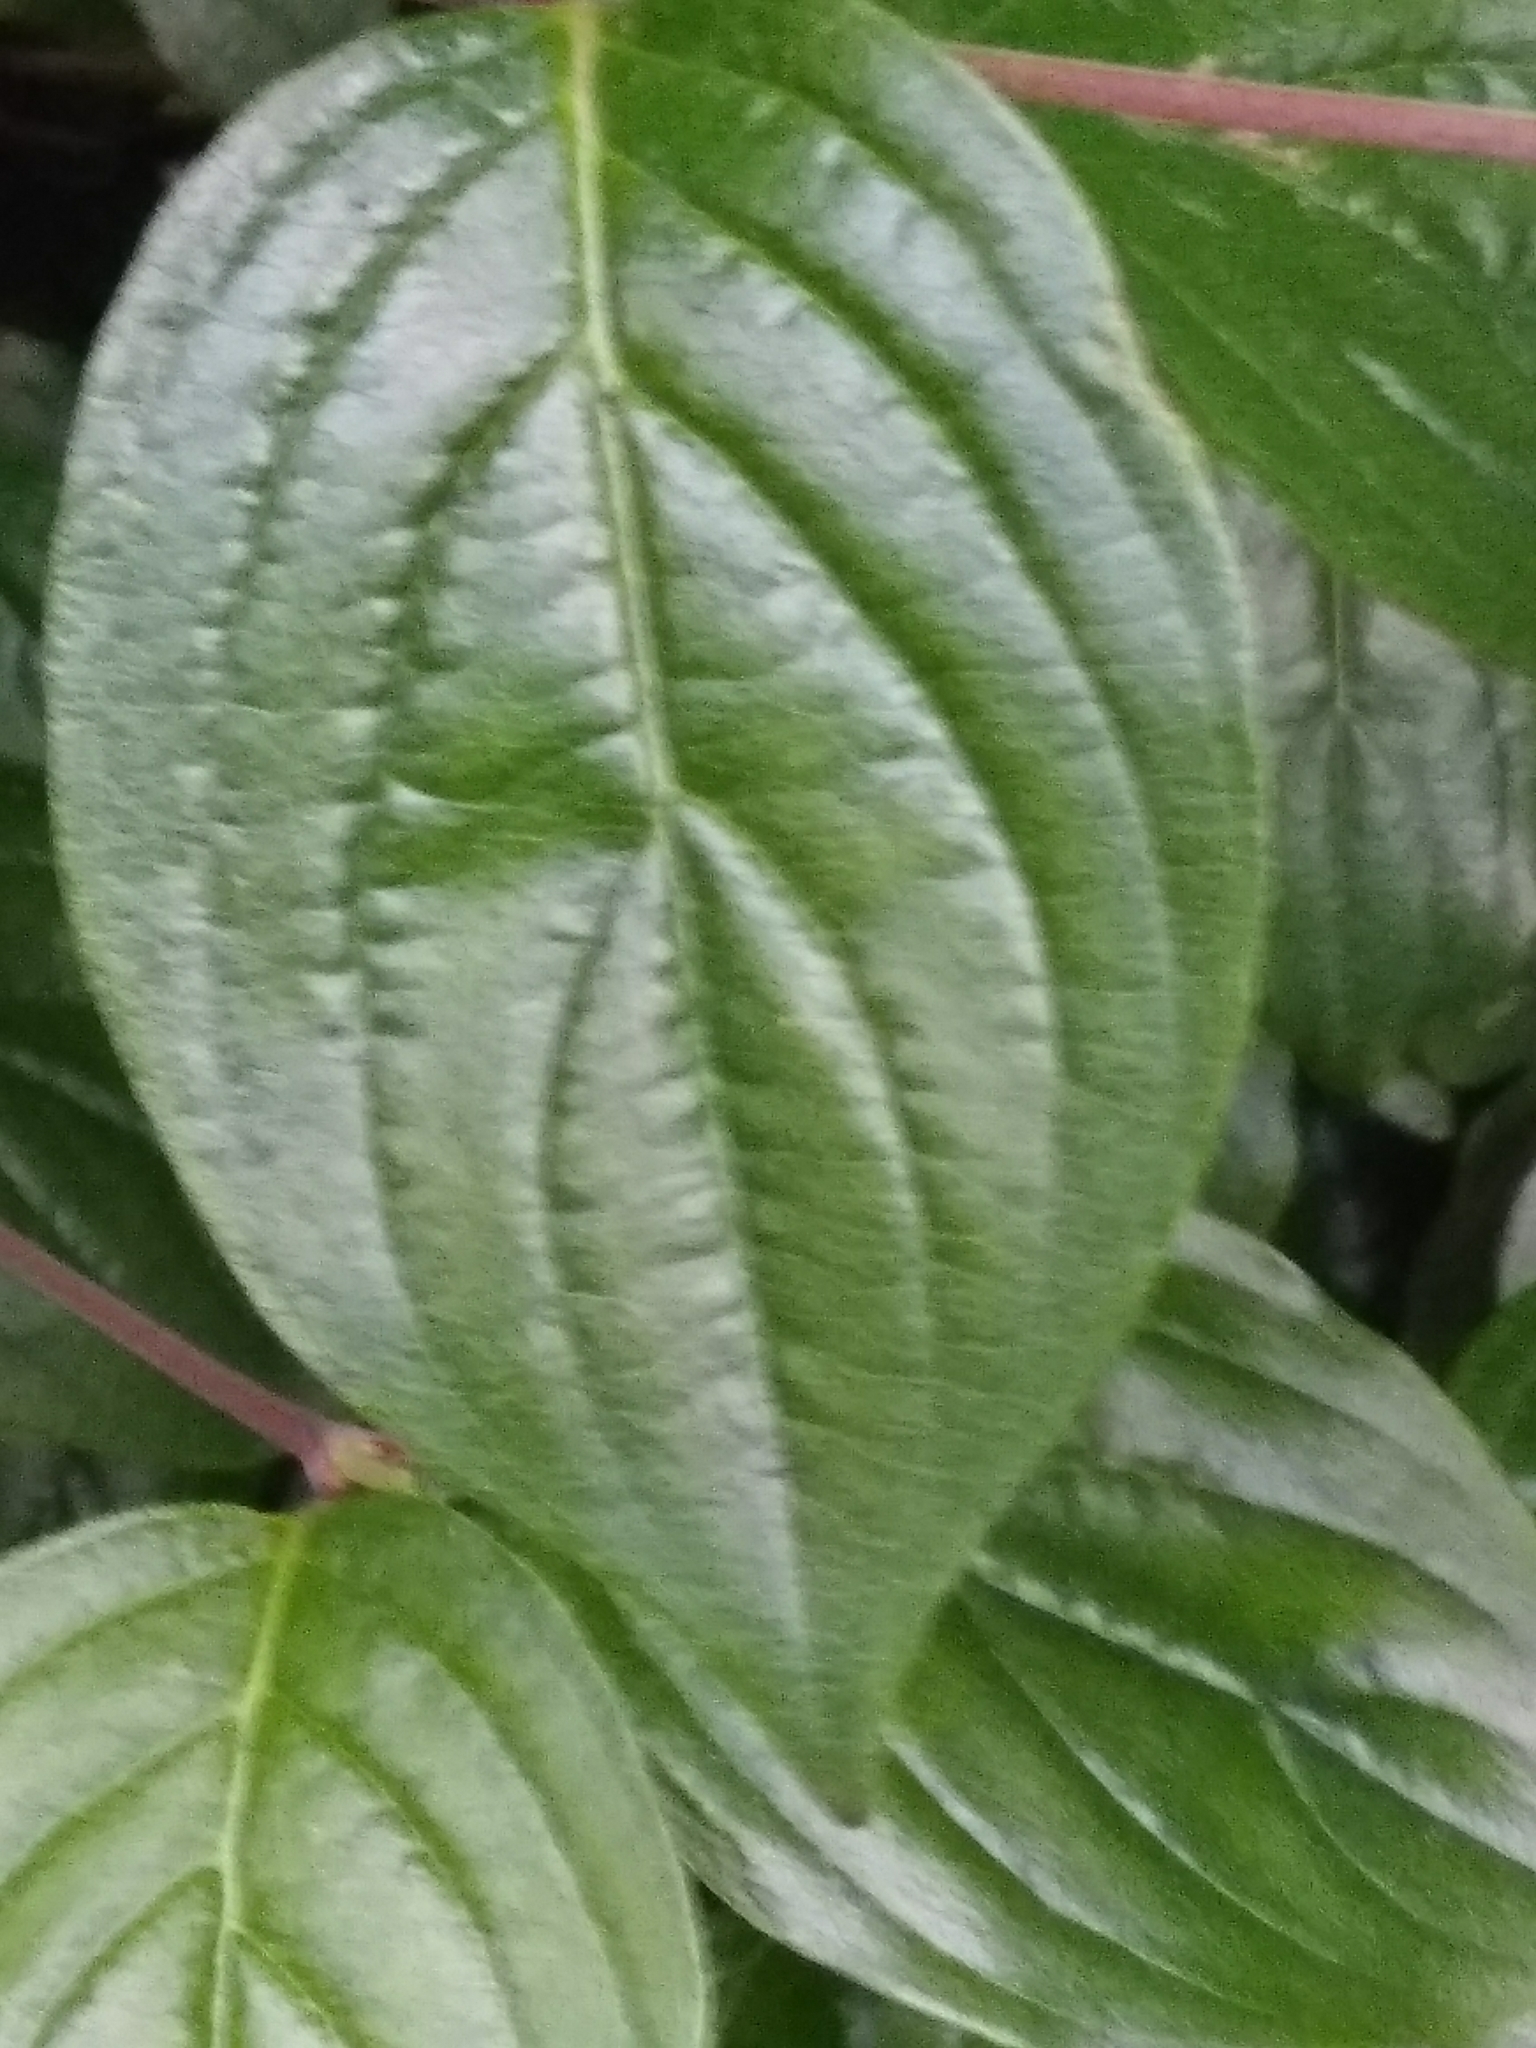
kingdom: Plantae
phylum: Tracheophyta
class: Magnoliopsida
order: Cornales
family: Cornaceae
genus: Cornus
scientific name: Cornus mas
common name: Cornelian-cherry
